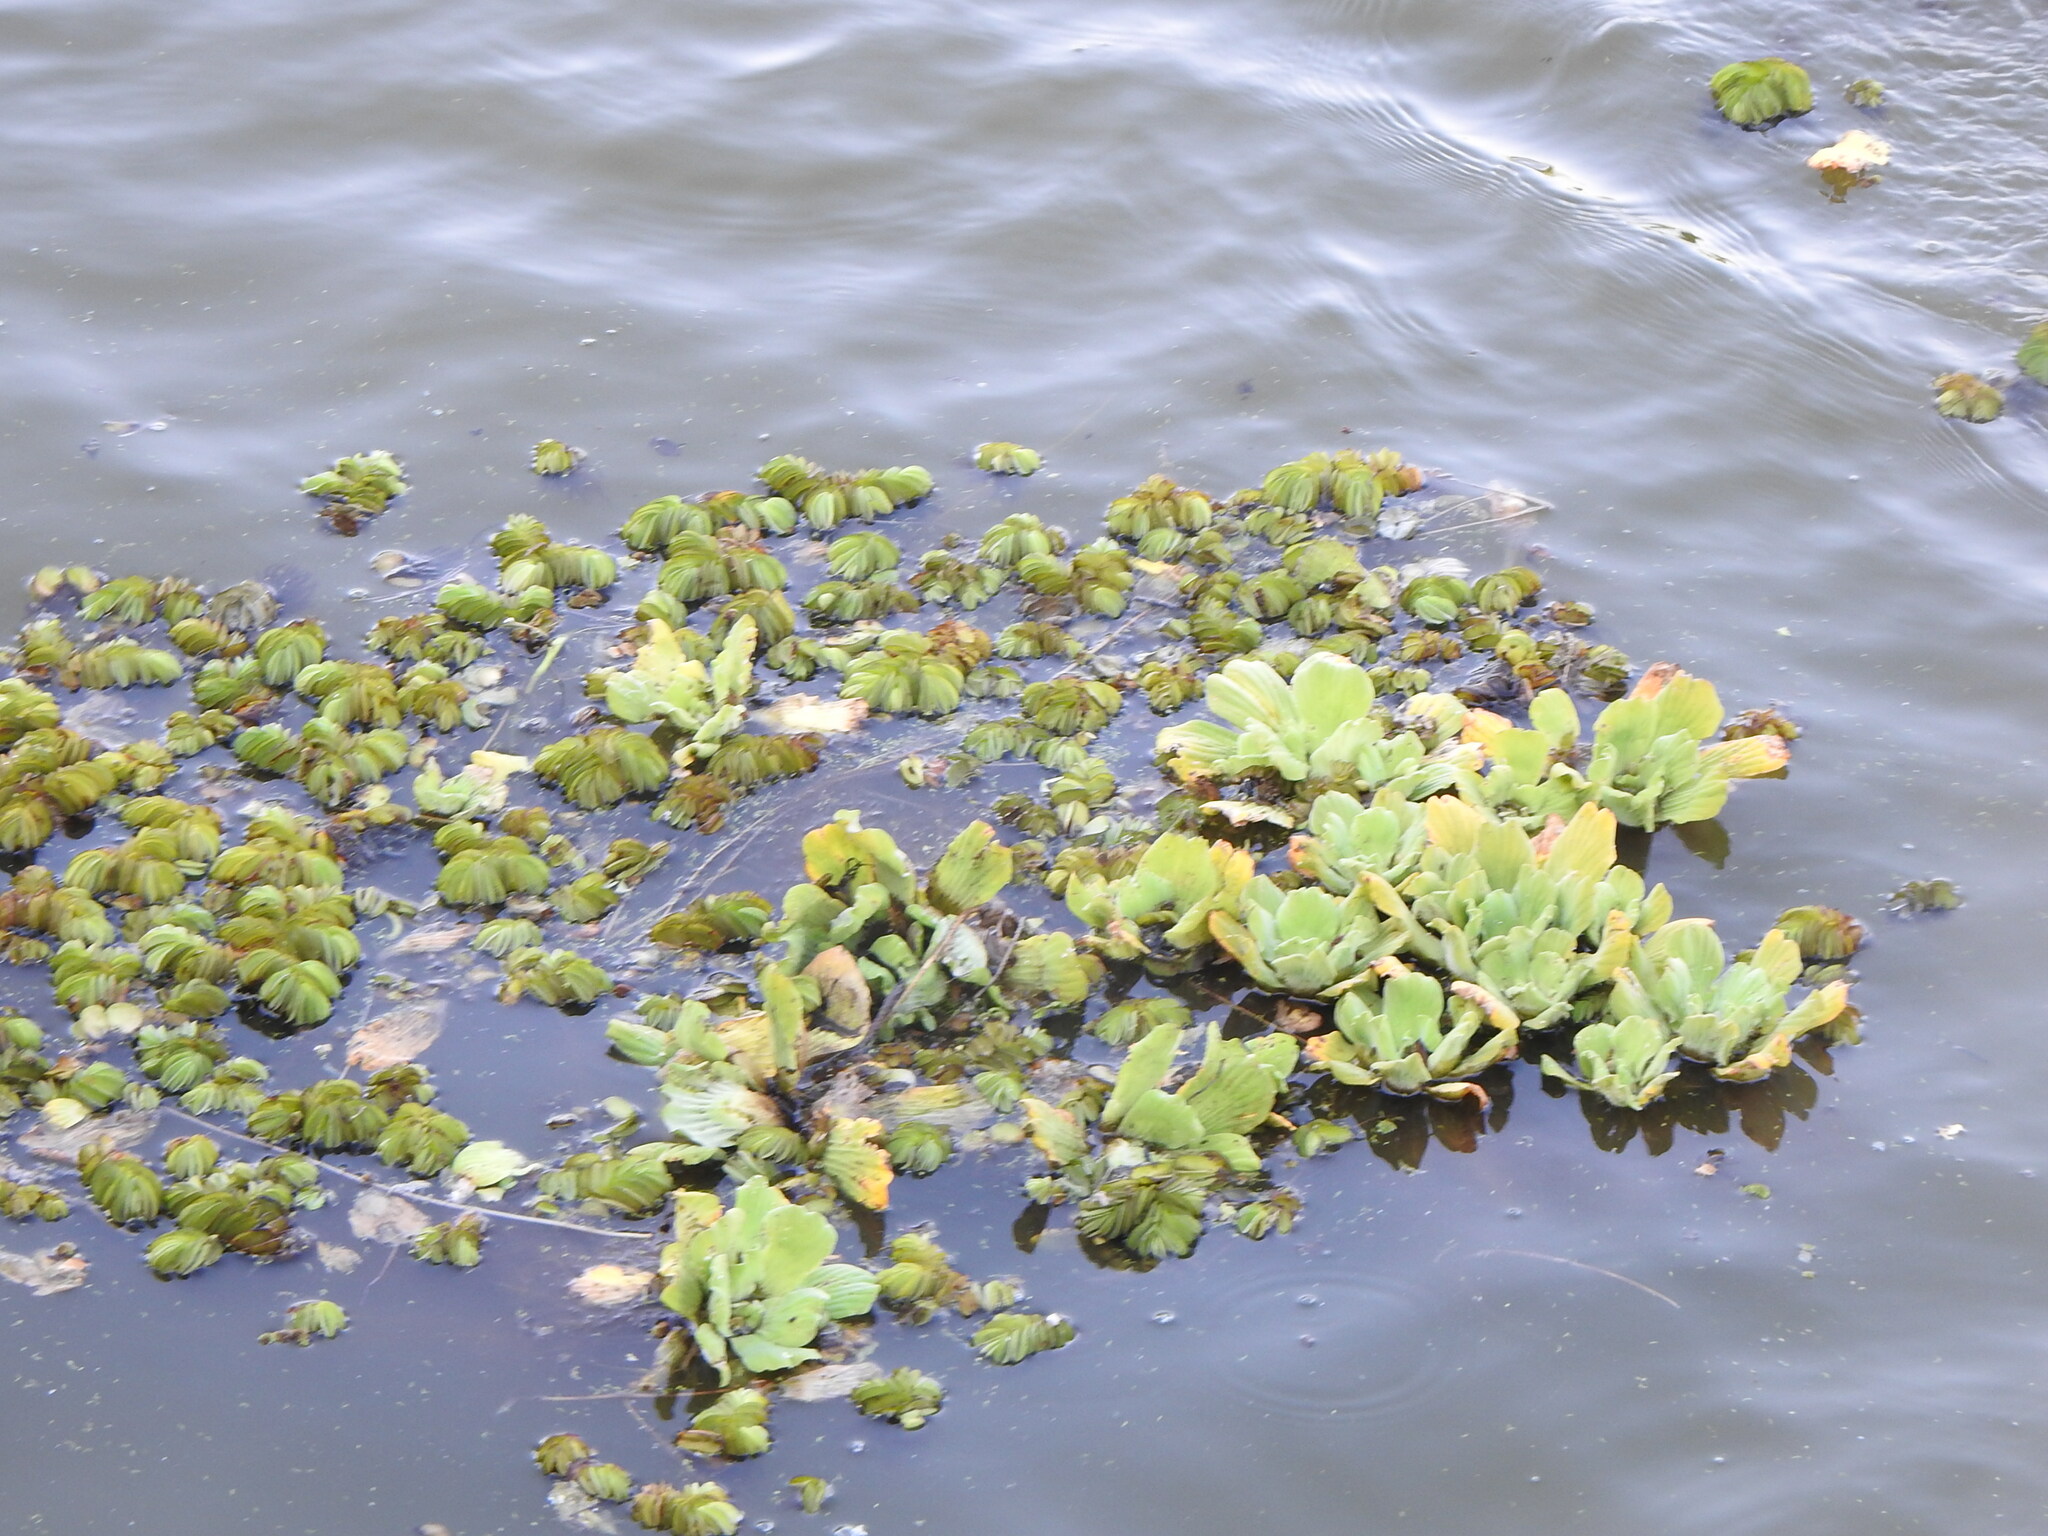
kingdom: Plantae
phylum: Tracheophyta
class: Liliopsida
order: Alismatales
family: Araceae
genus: Pistia
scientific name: Pistia stratiotes
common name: Water lettuce
